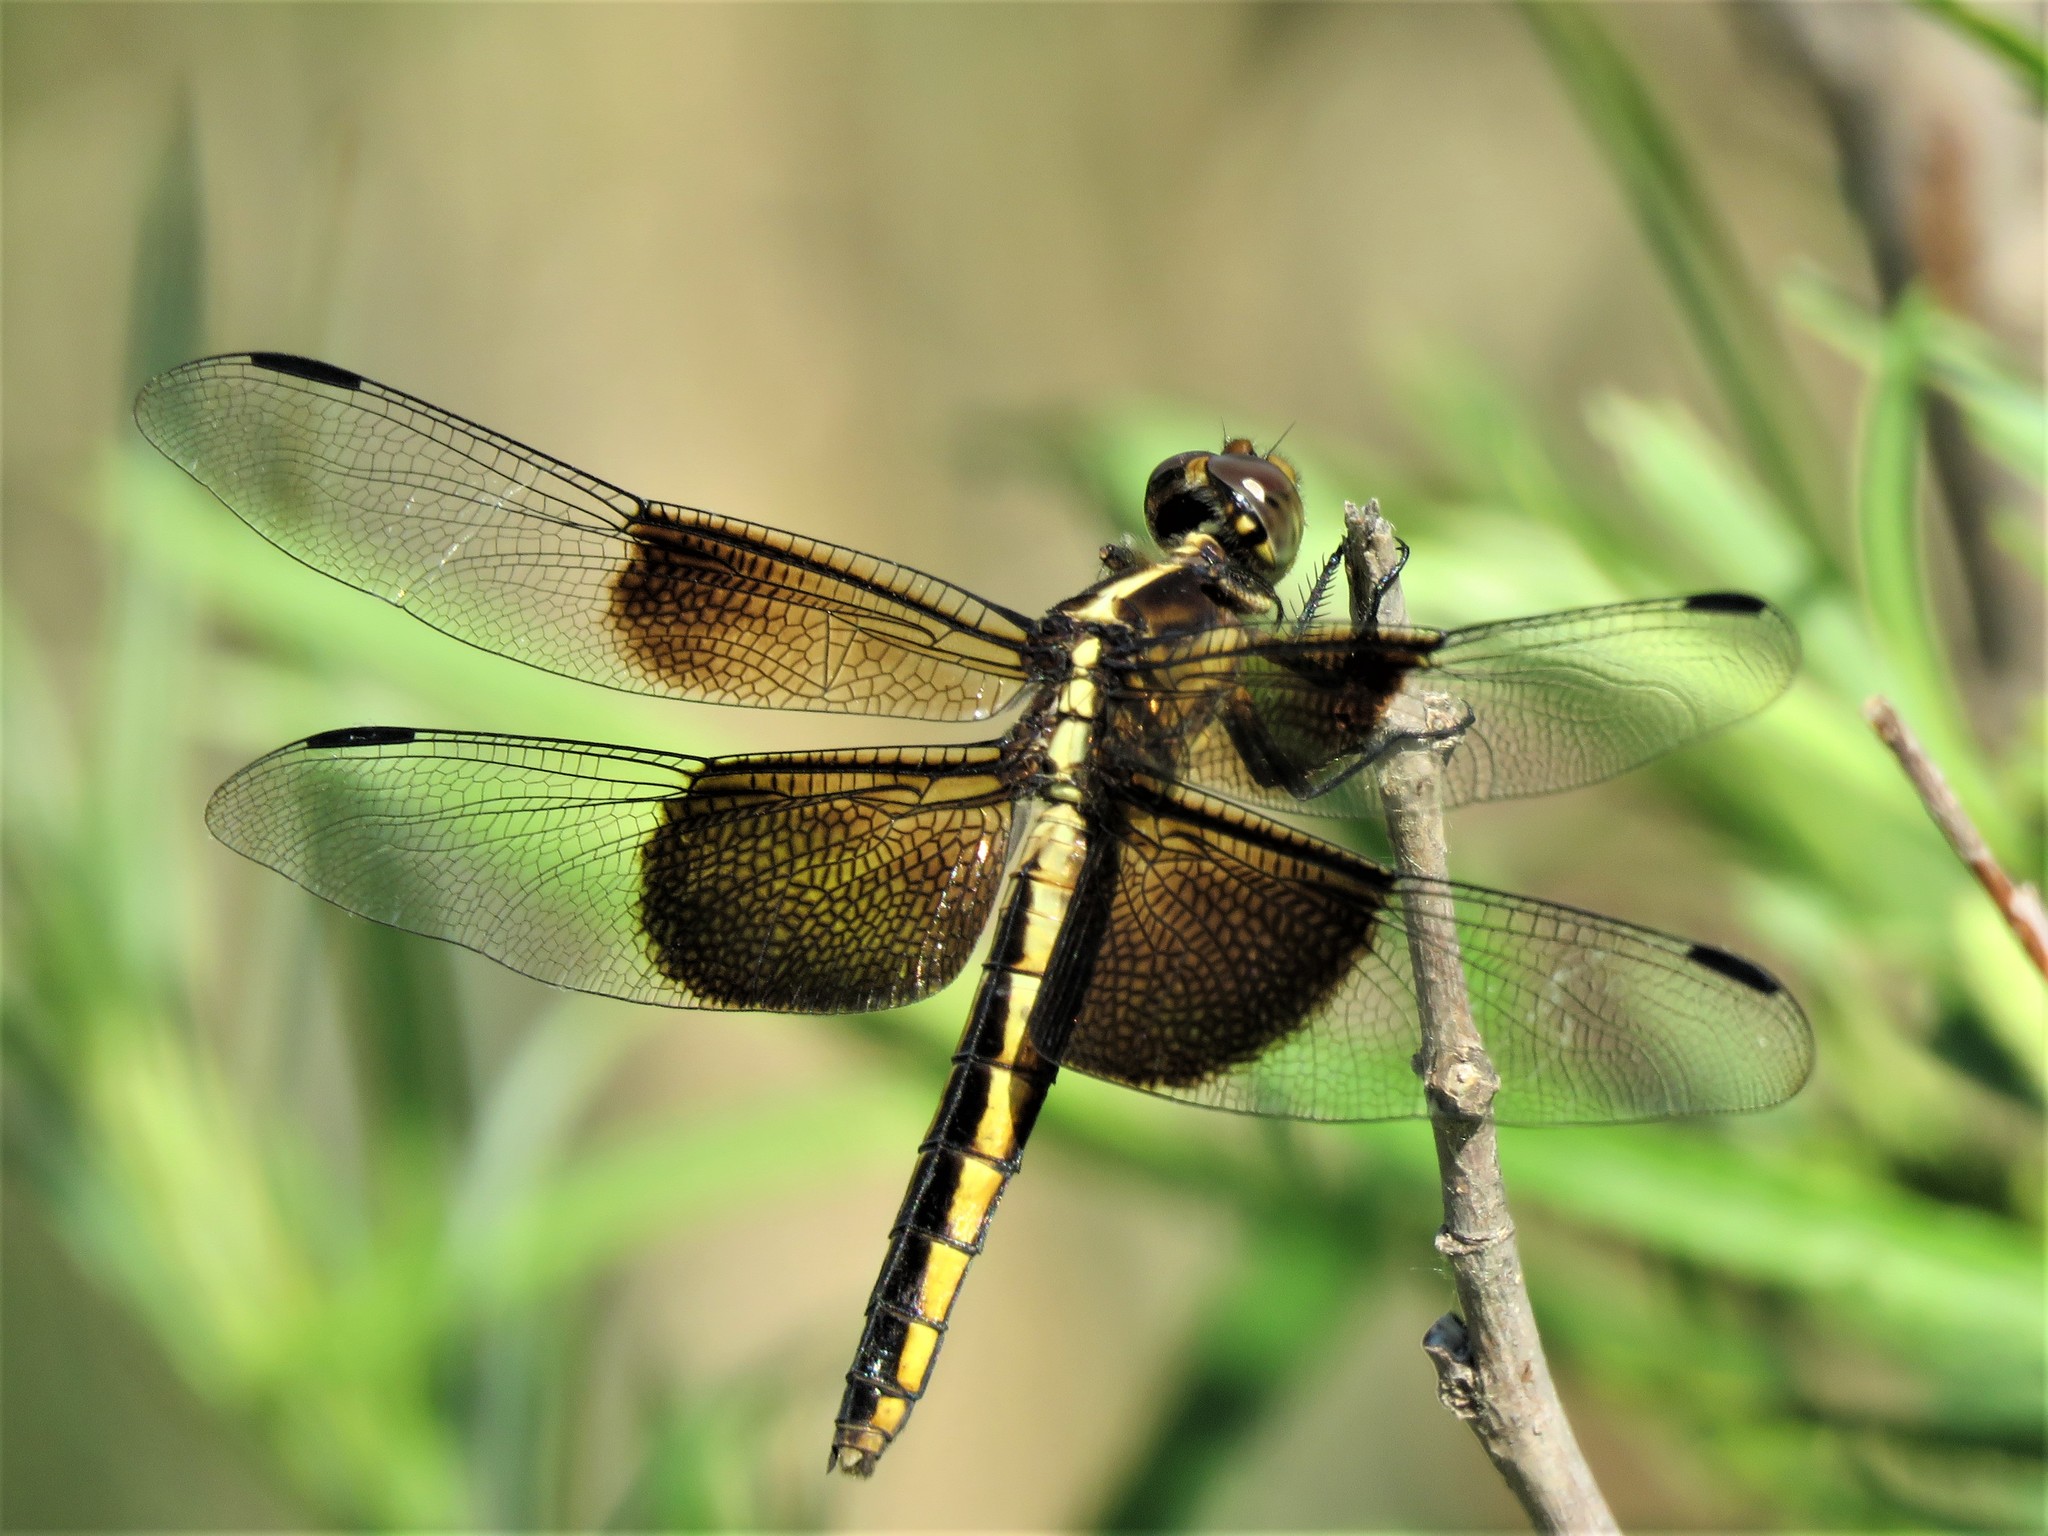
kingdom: Animalia
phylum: Arthropoda
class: Insecta
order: Odonata
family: Libellulidae
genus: Libellula
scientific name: Libellula luctuosa
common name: Widow skimmer
